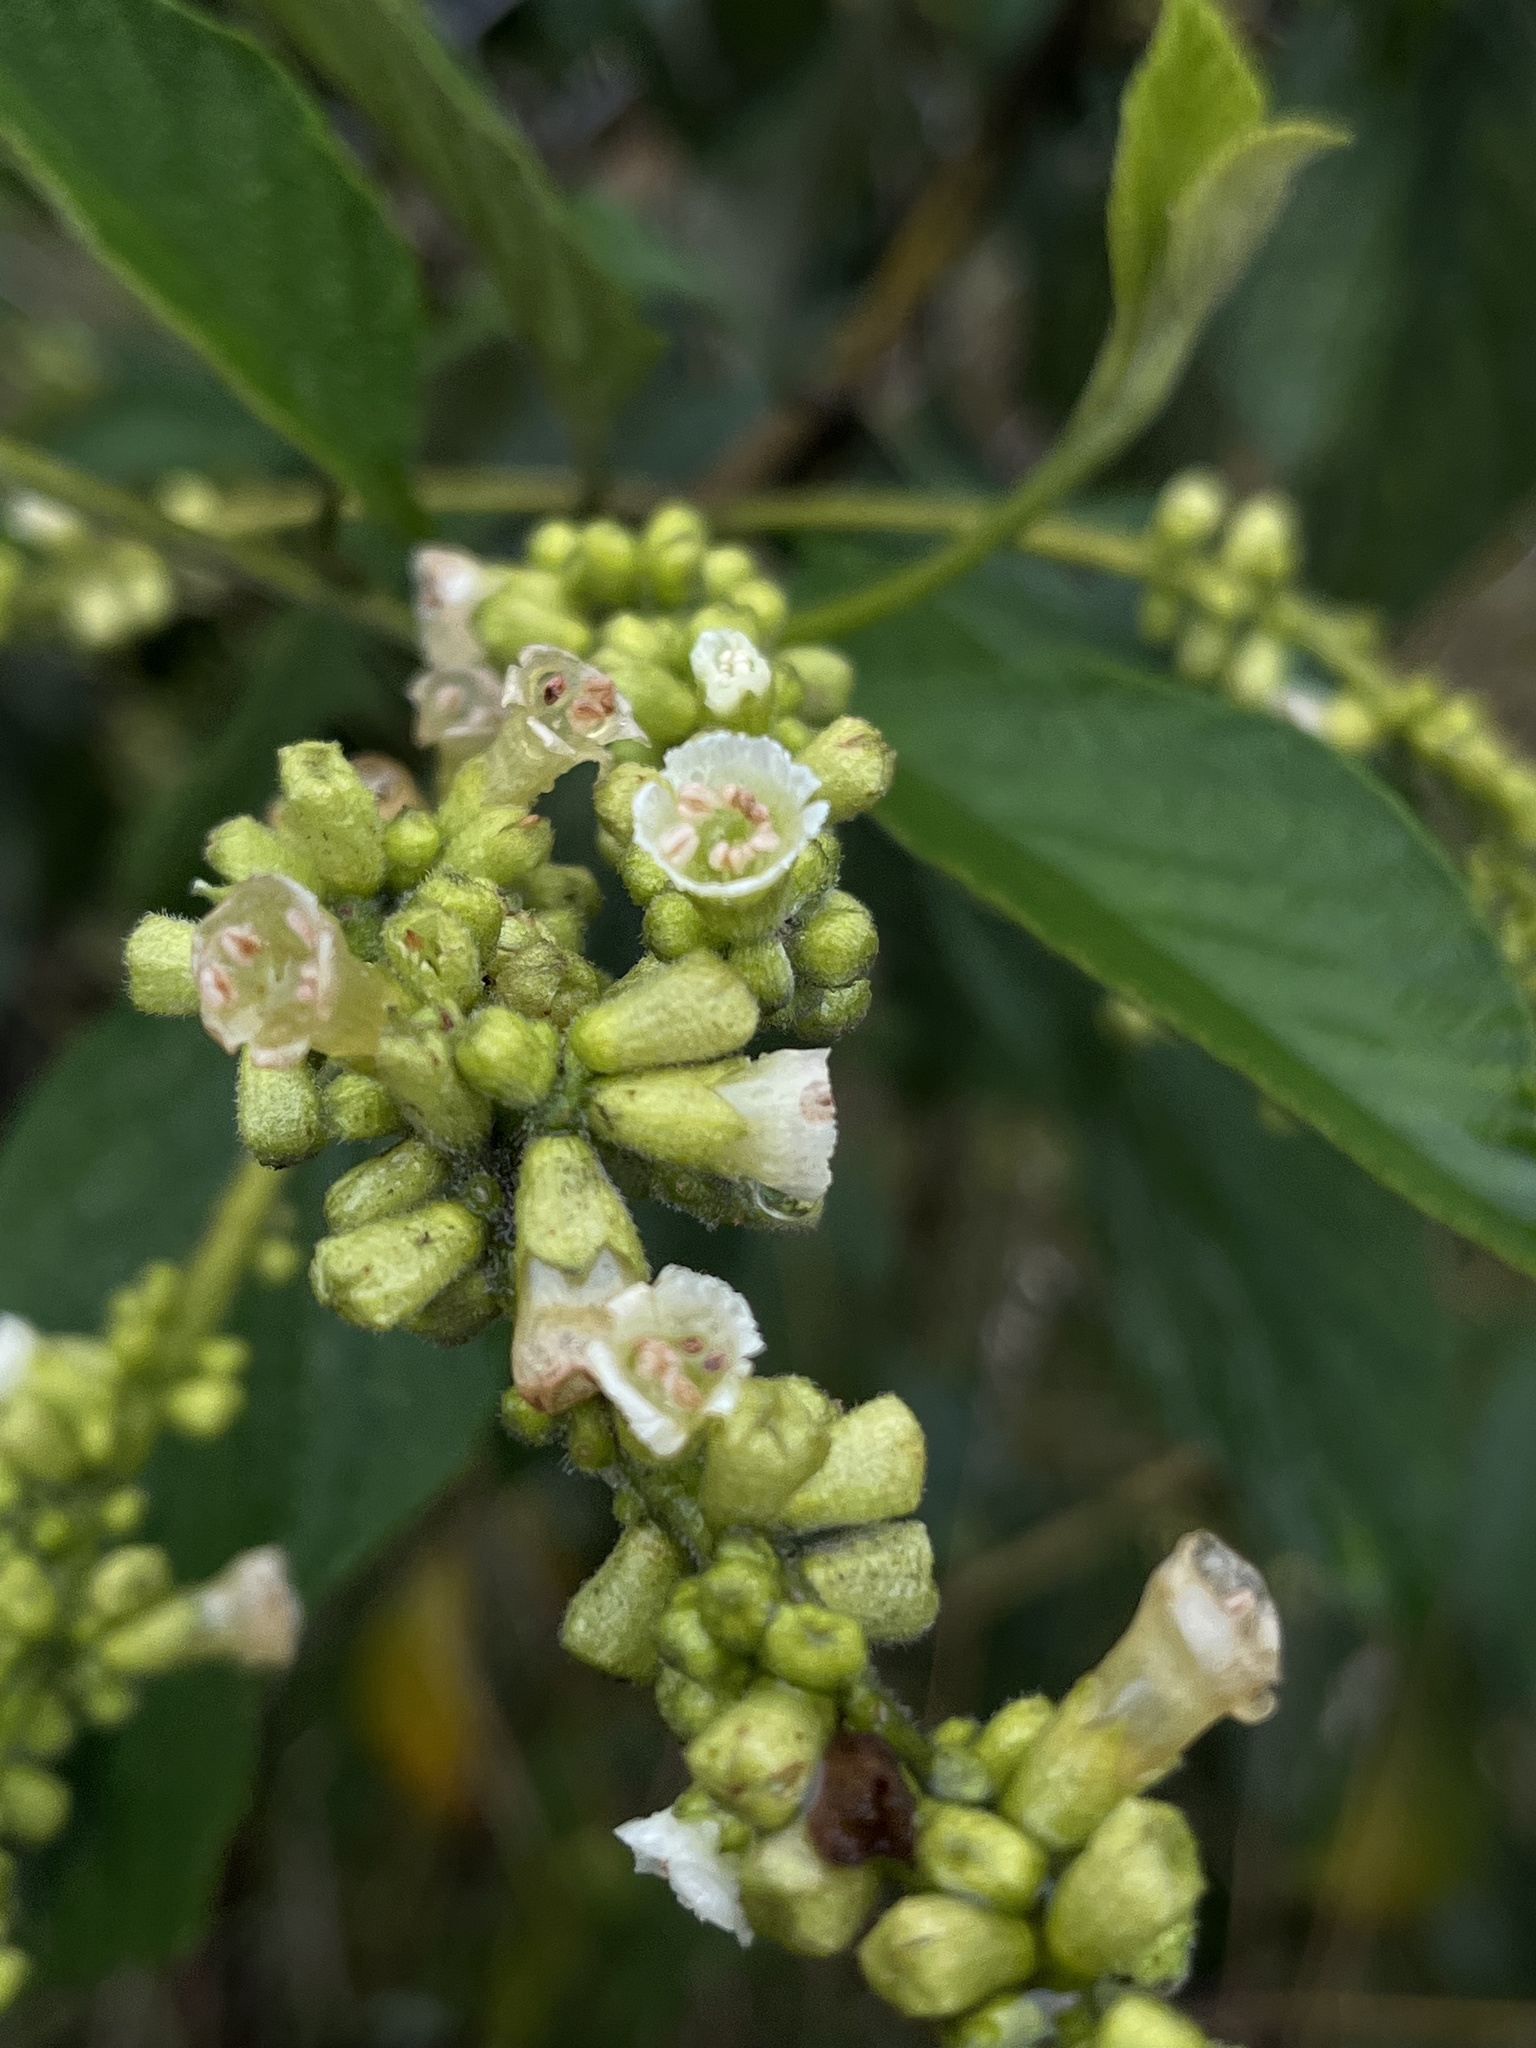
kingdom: Plantae
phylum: Tracheophyta
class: Magnoliopsida
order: Boraginales
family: Cordiaceae
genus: Varronia
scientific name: Varronia cylindrostachya
